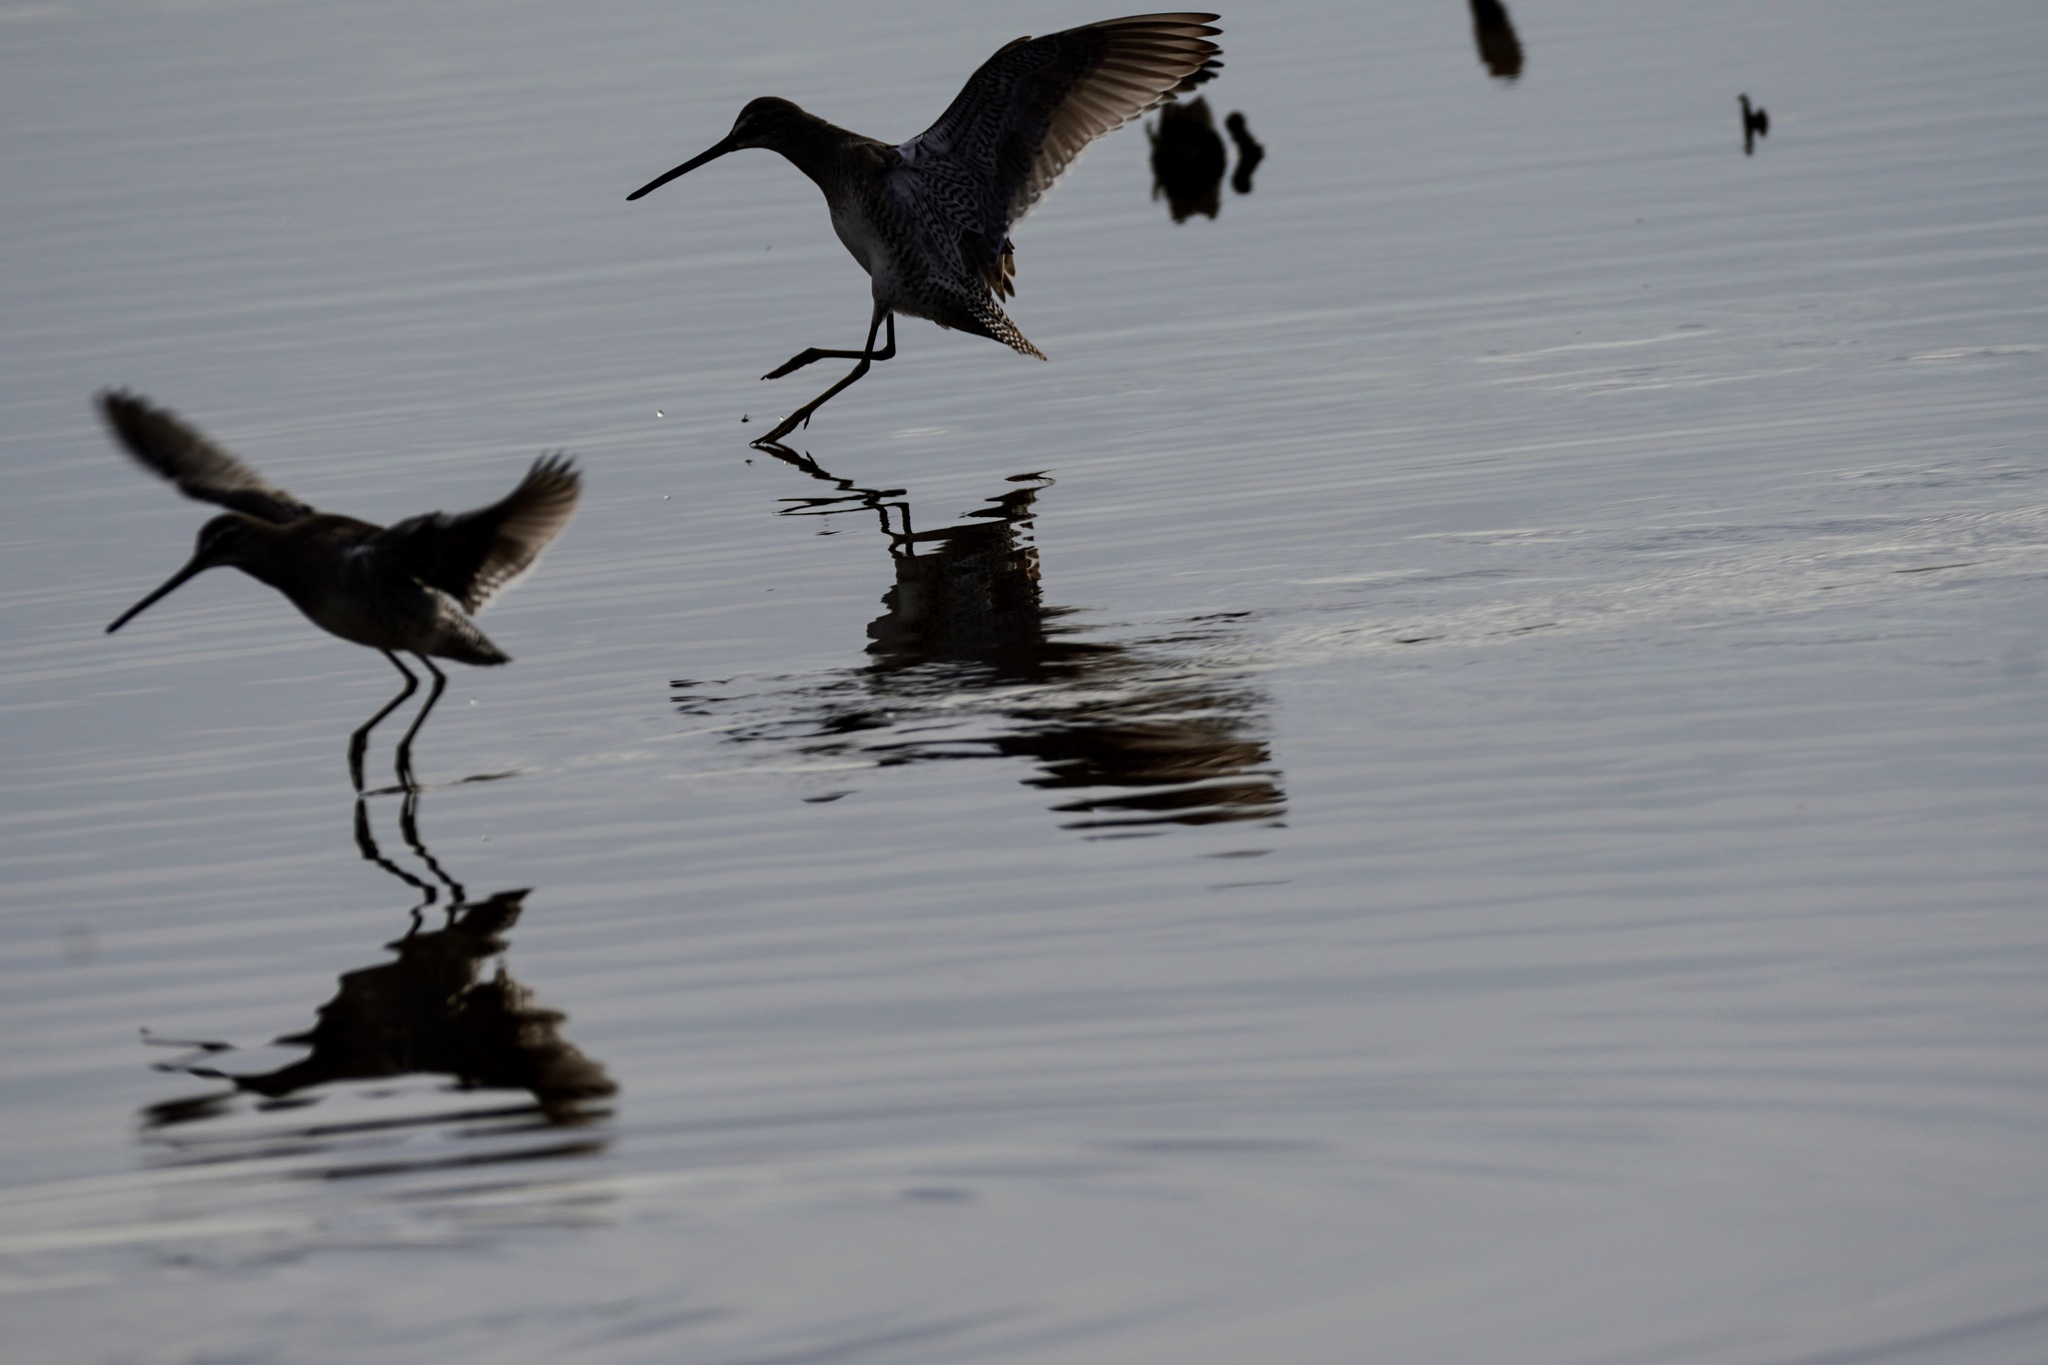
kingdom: Animalia
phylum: Chordata
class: Aves
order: Charadriiformes
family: Scolopacidae
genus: Limnodromus
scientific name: Limnodromus scolopaceus
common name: Long-billed dowitcher
